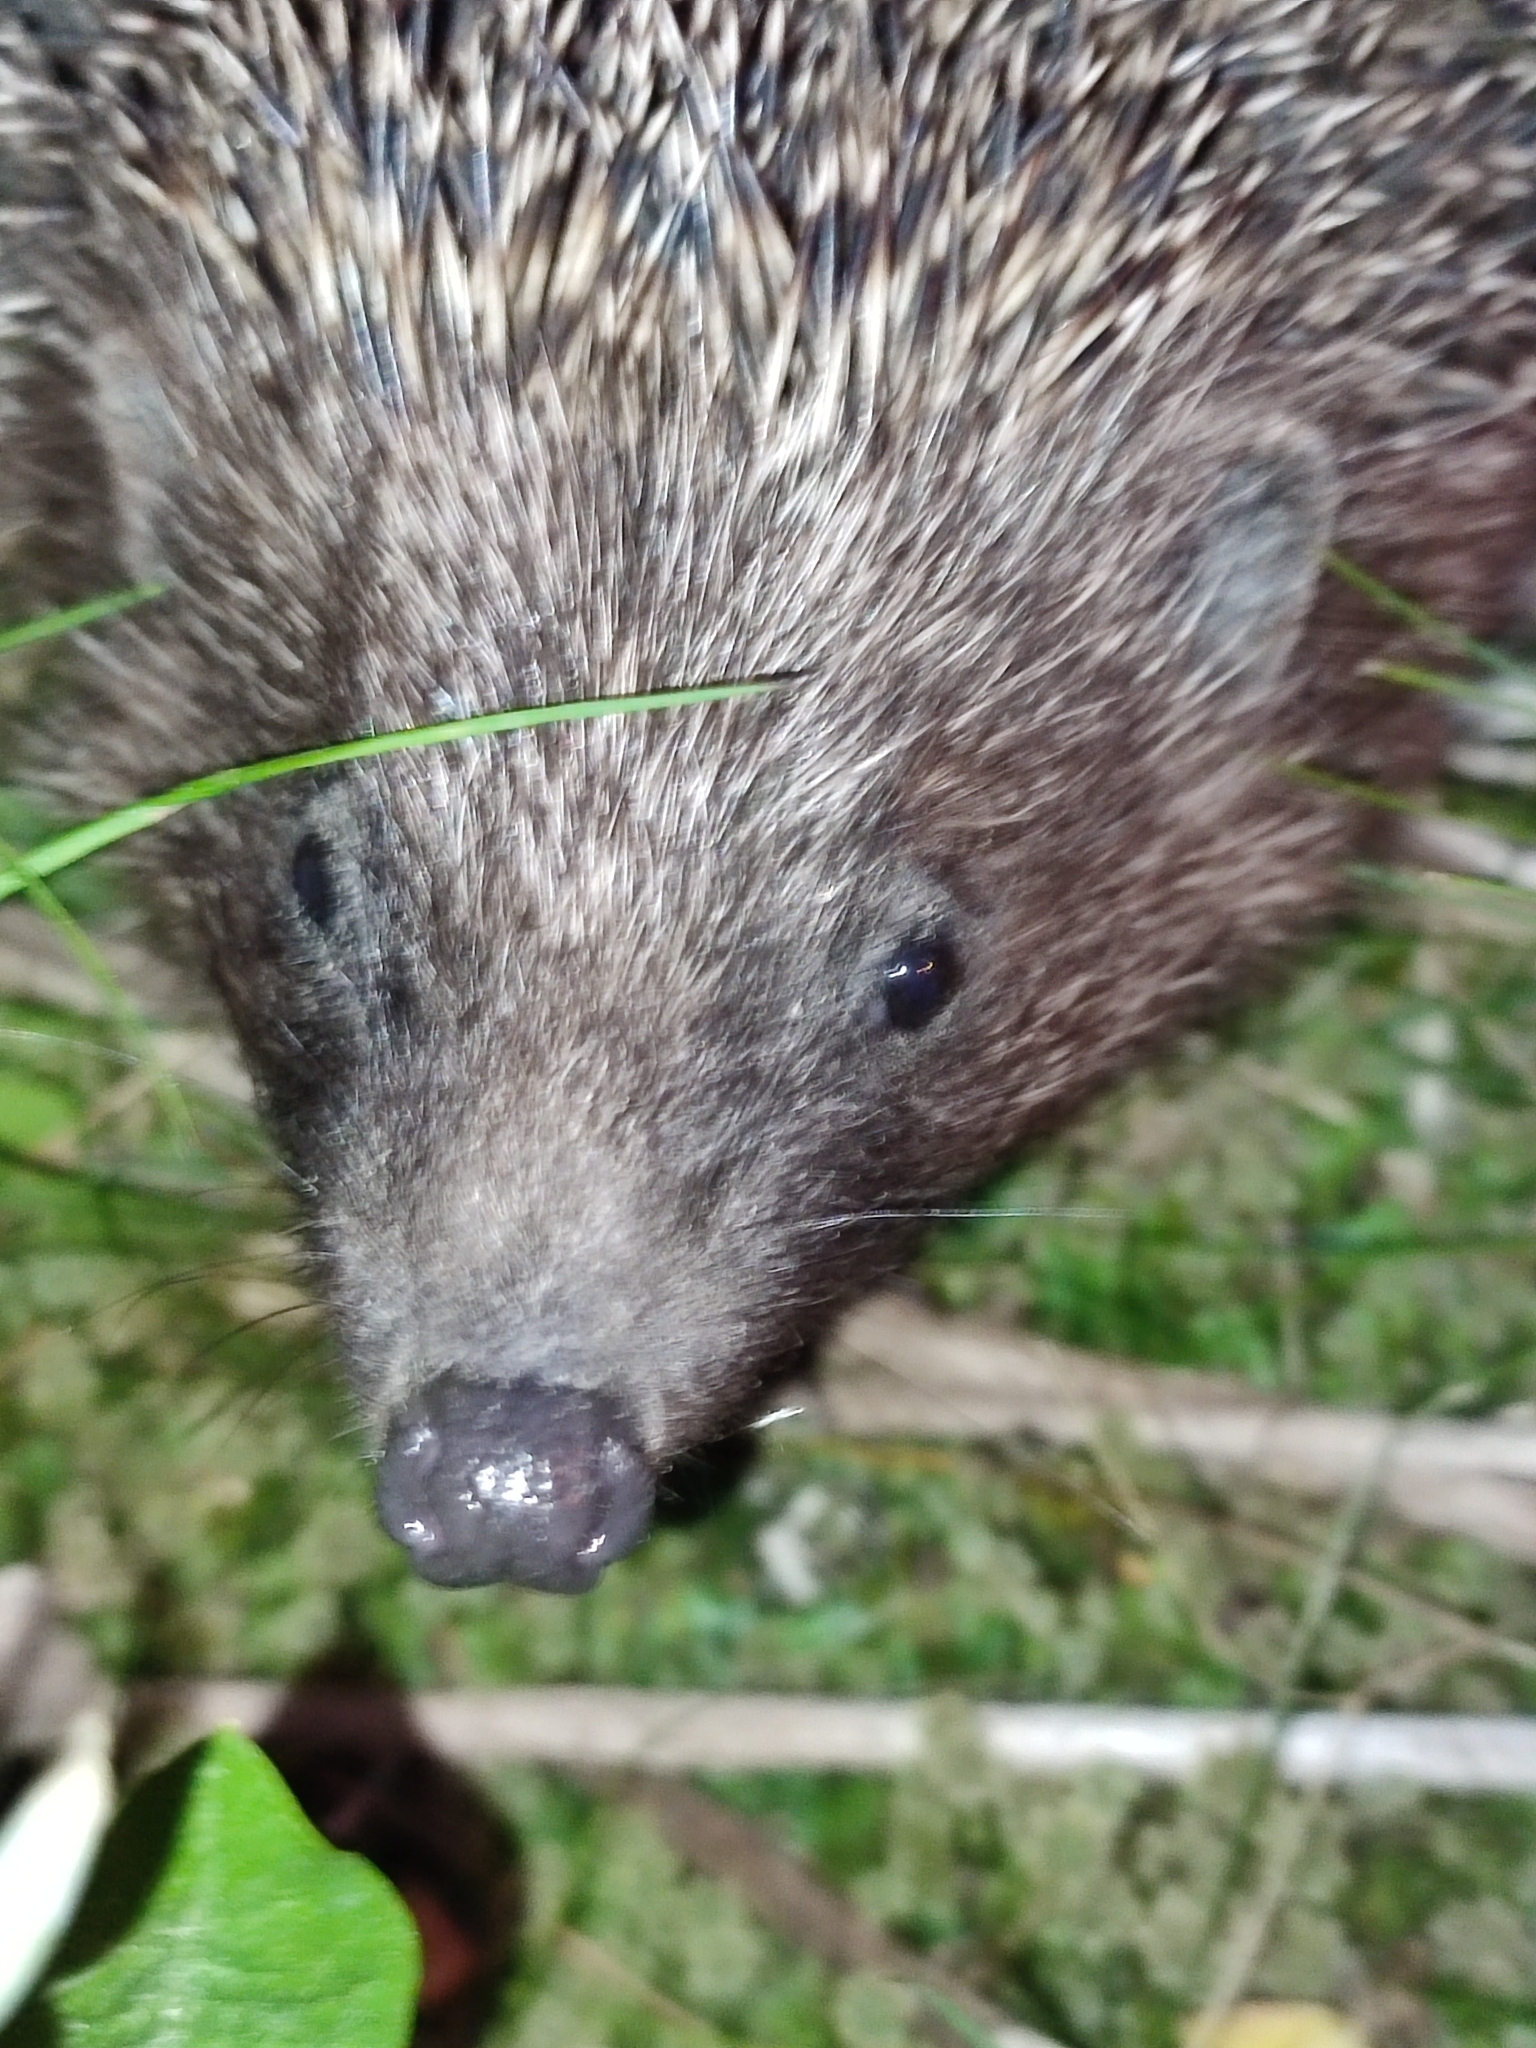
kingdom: Animalia
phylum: Chordata
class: Mammalia
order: Erinaceomorpha
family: Erinaceidae
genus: Erinaceus
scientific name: Erinaceus roumanicus
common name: Northern white-breasted hedgehog
